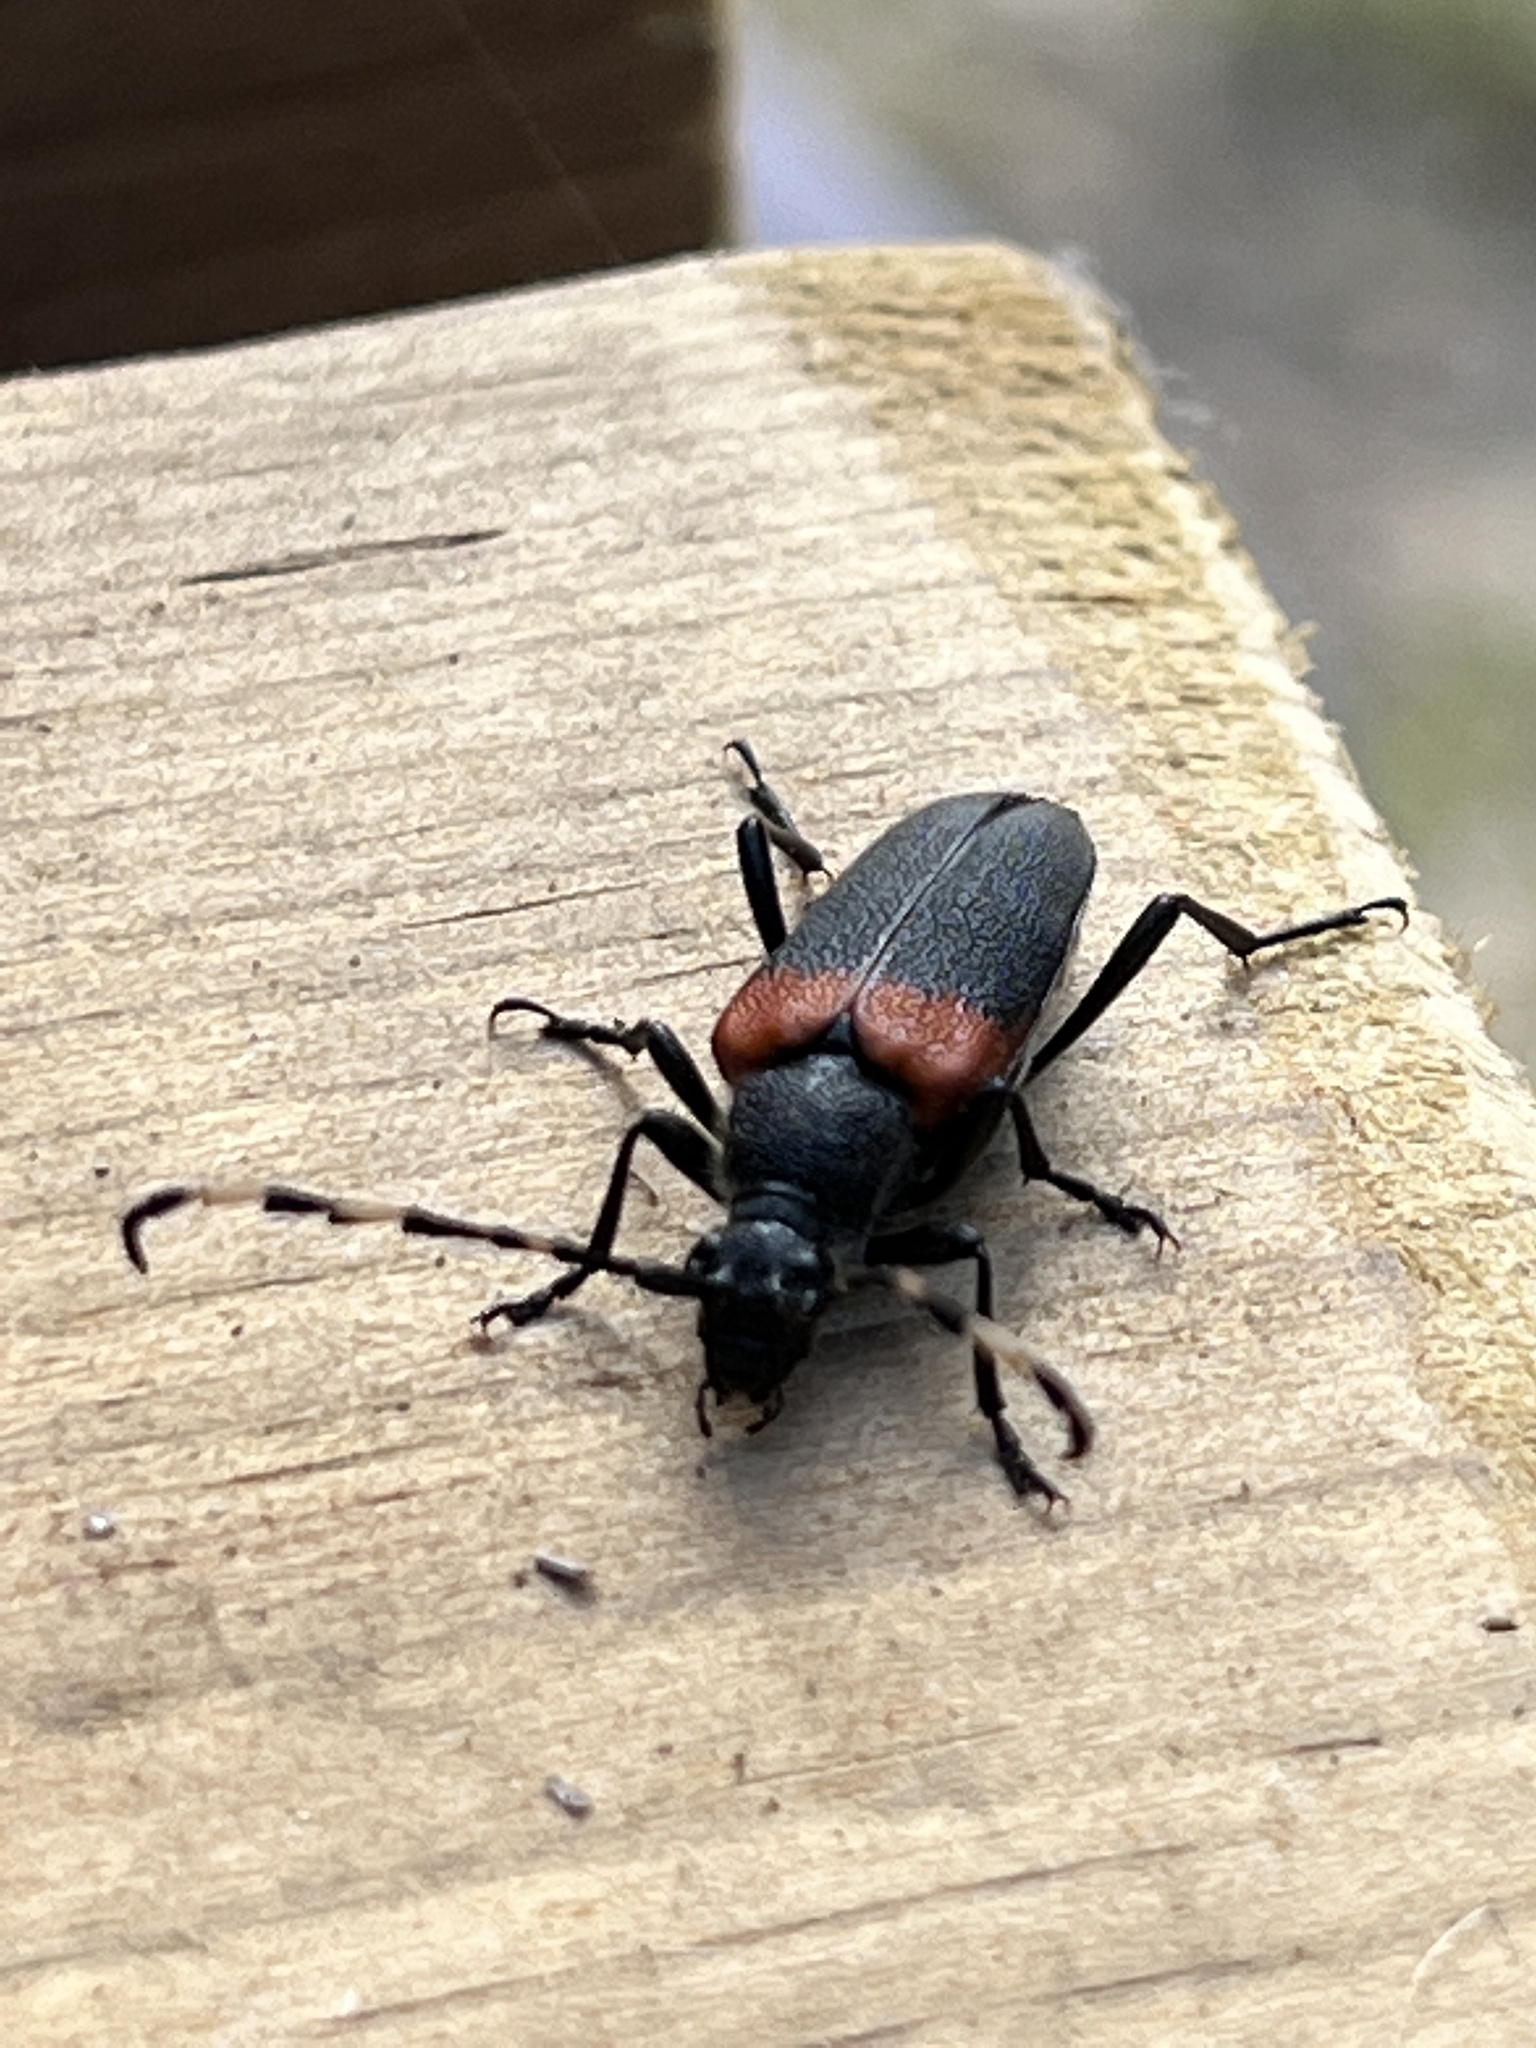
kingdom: Animalia
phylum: Arthropoda
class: Insecta
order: Coleoptera
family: Cerambycidae
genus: Stictoleptura
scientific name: Stictoleptura canadensis
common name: Red-shouldered pine borer
